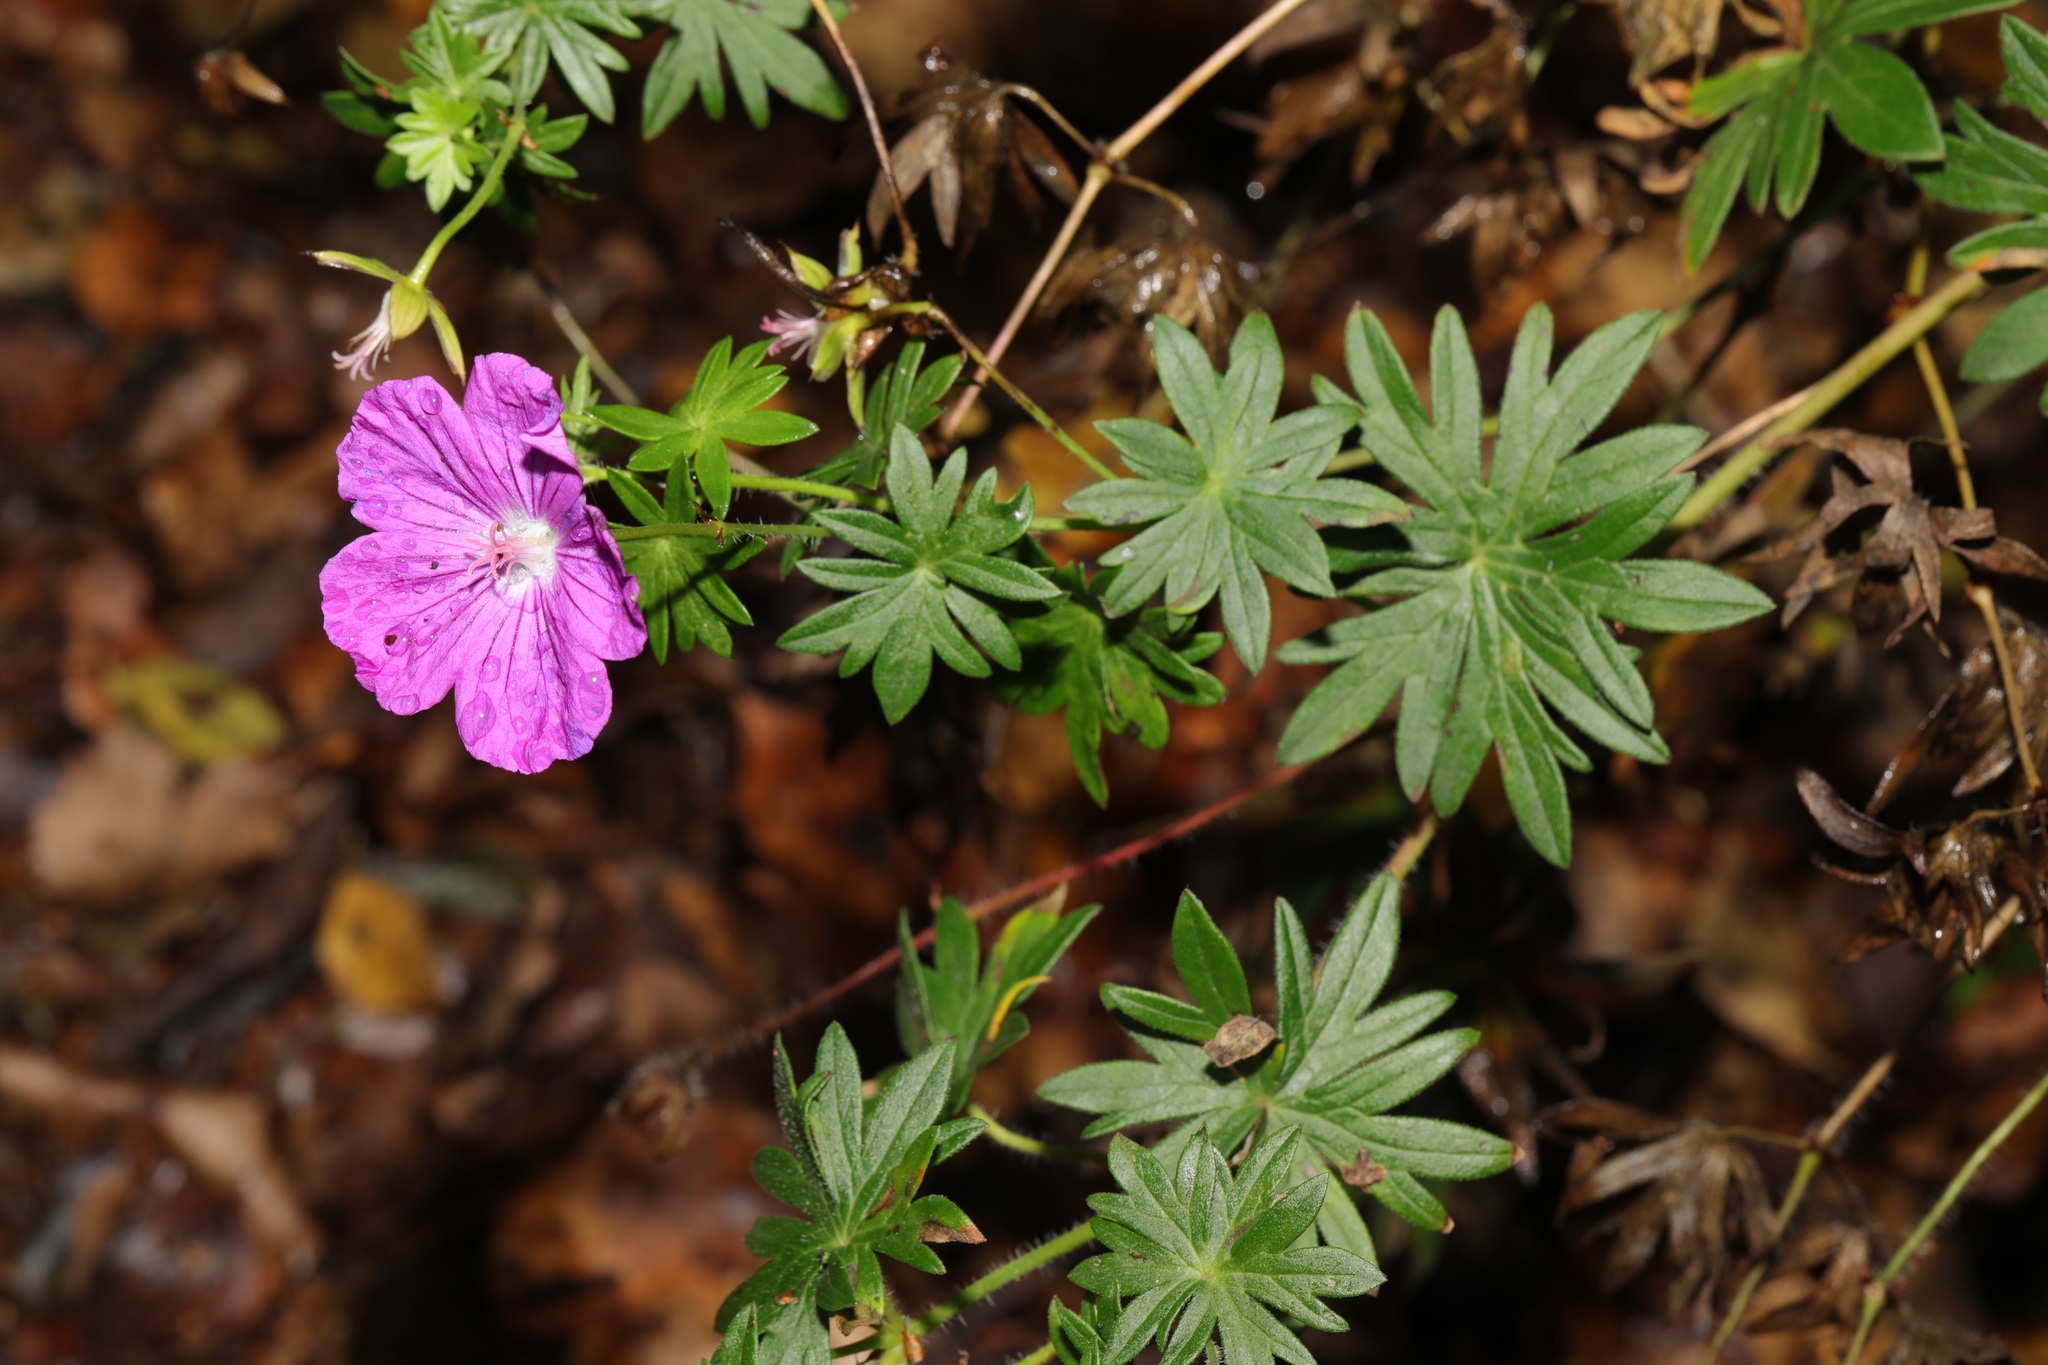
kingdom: Plantae
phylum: Tracheophyta
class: Magnoliopsida
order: Geraniales
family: Geraniaceae
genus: Geranium
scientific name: Geranium sanguineum
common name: Bloody crane's-bill
